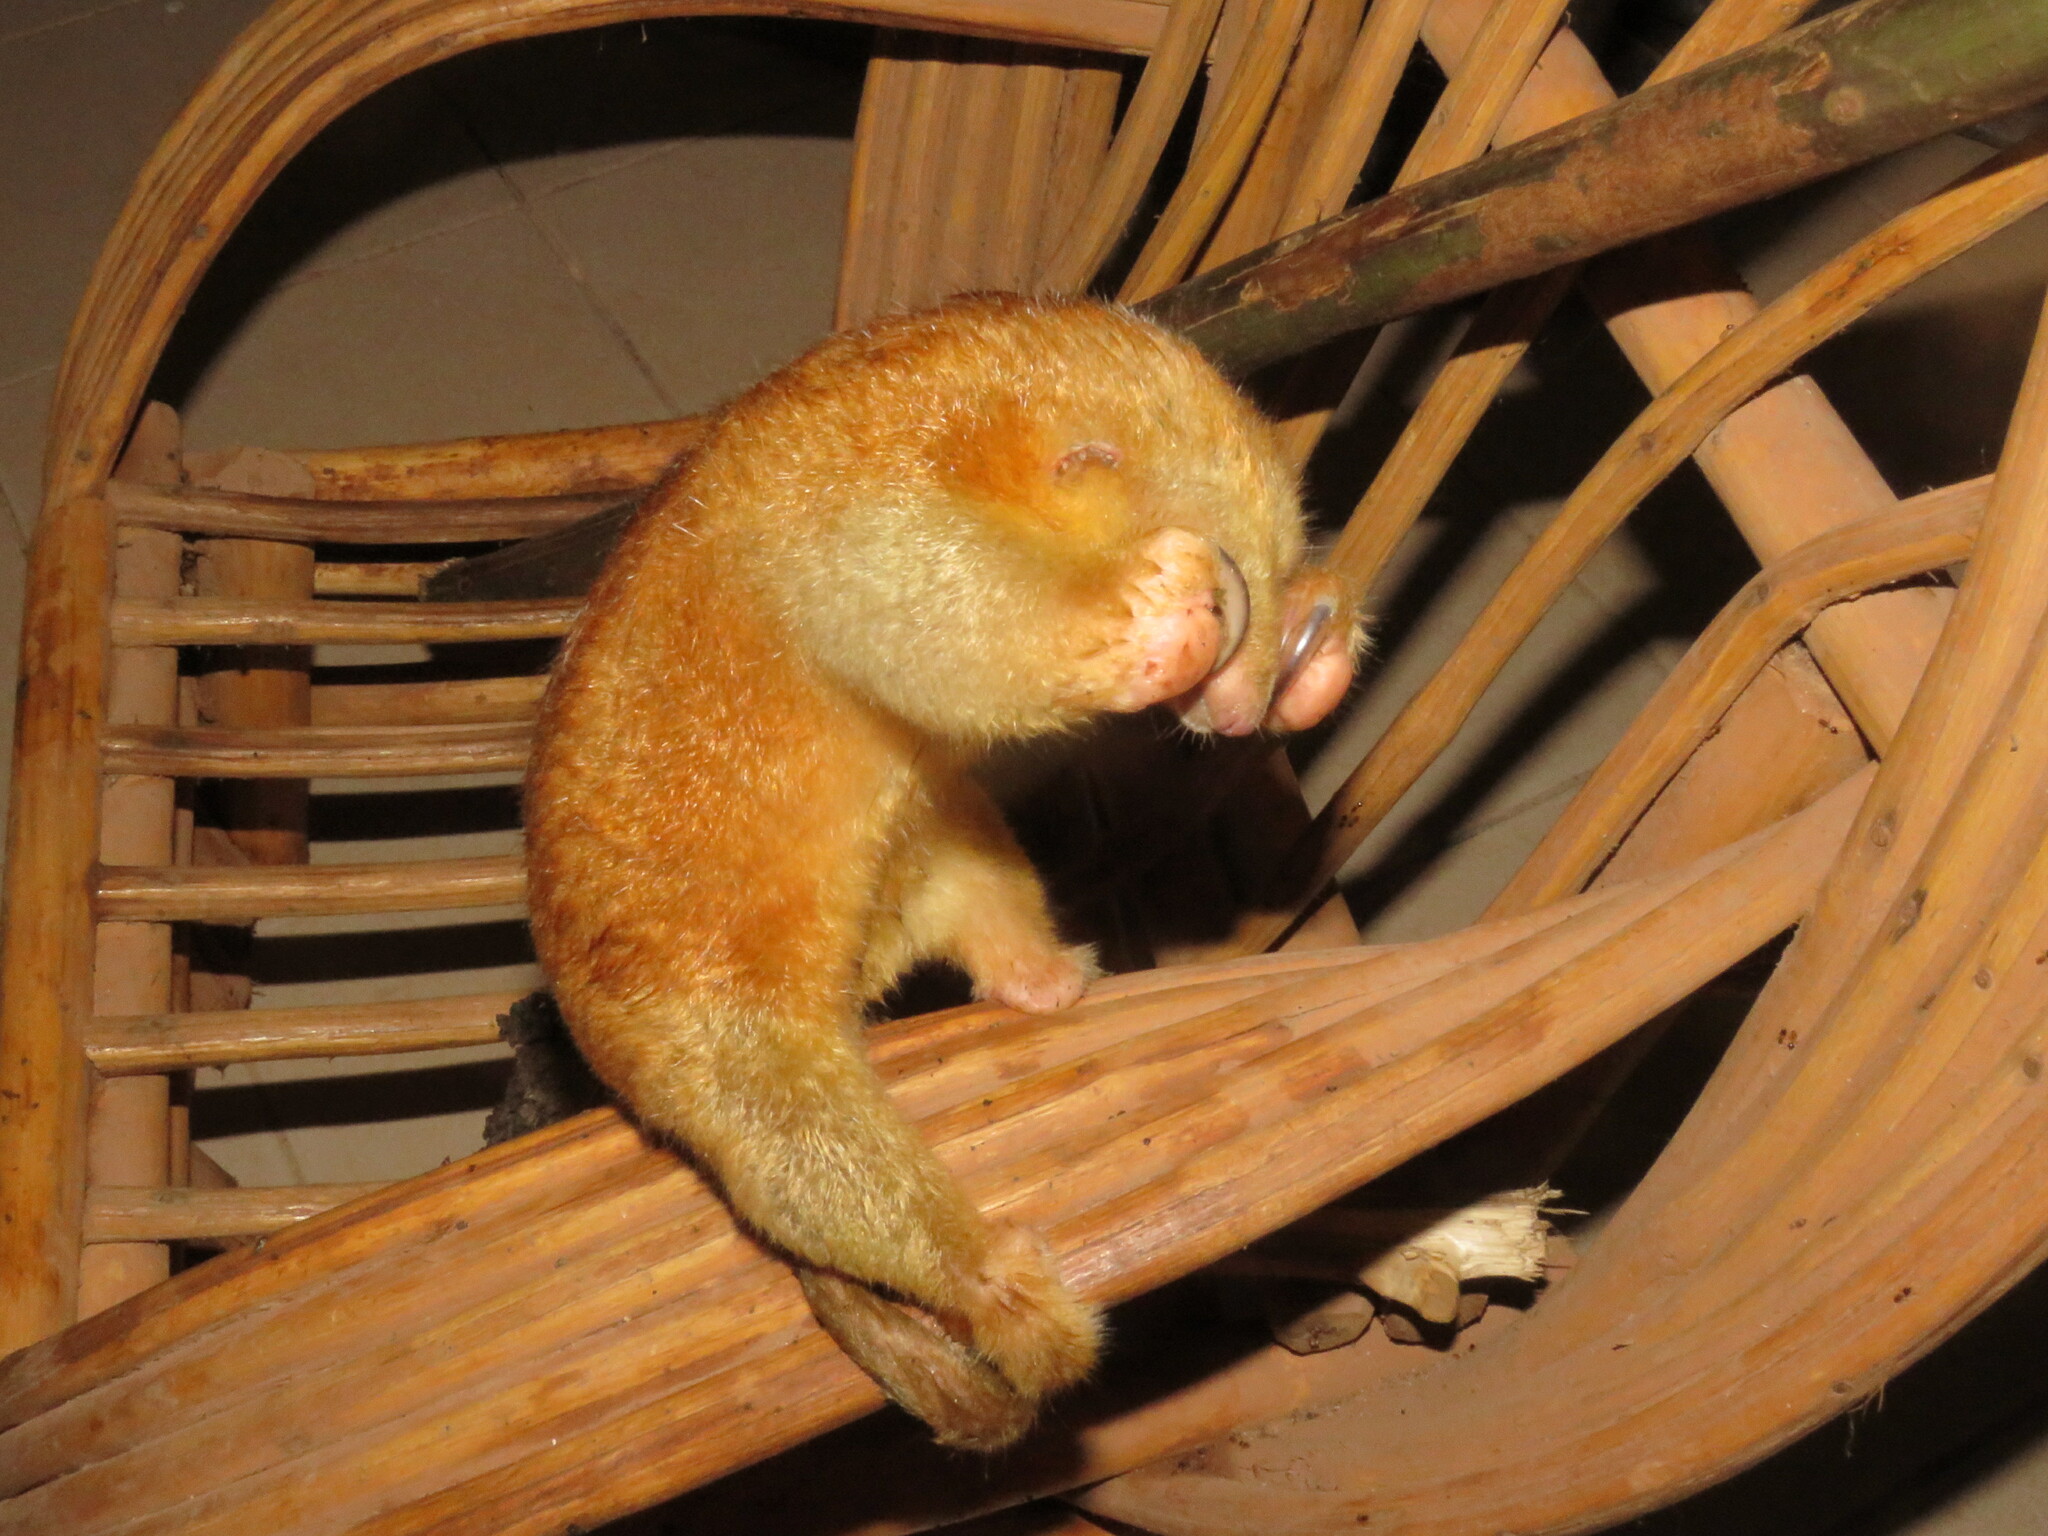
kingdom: Animalia
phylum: Chordata
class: Mammalia
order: Pilosa
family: Cyclopedidae
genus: Cyclopes
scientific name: Cyclopes rufus
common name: Red silky anteater
